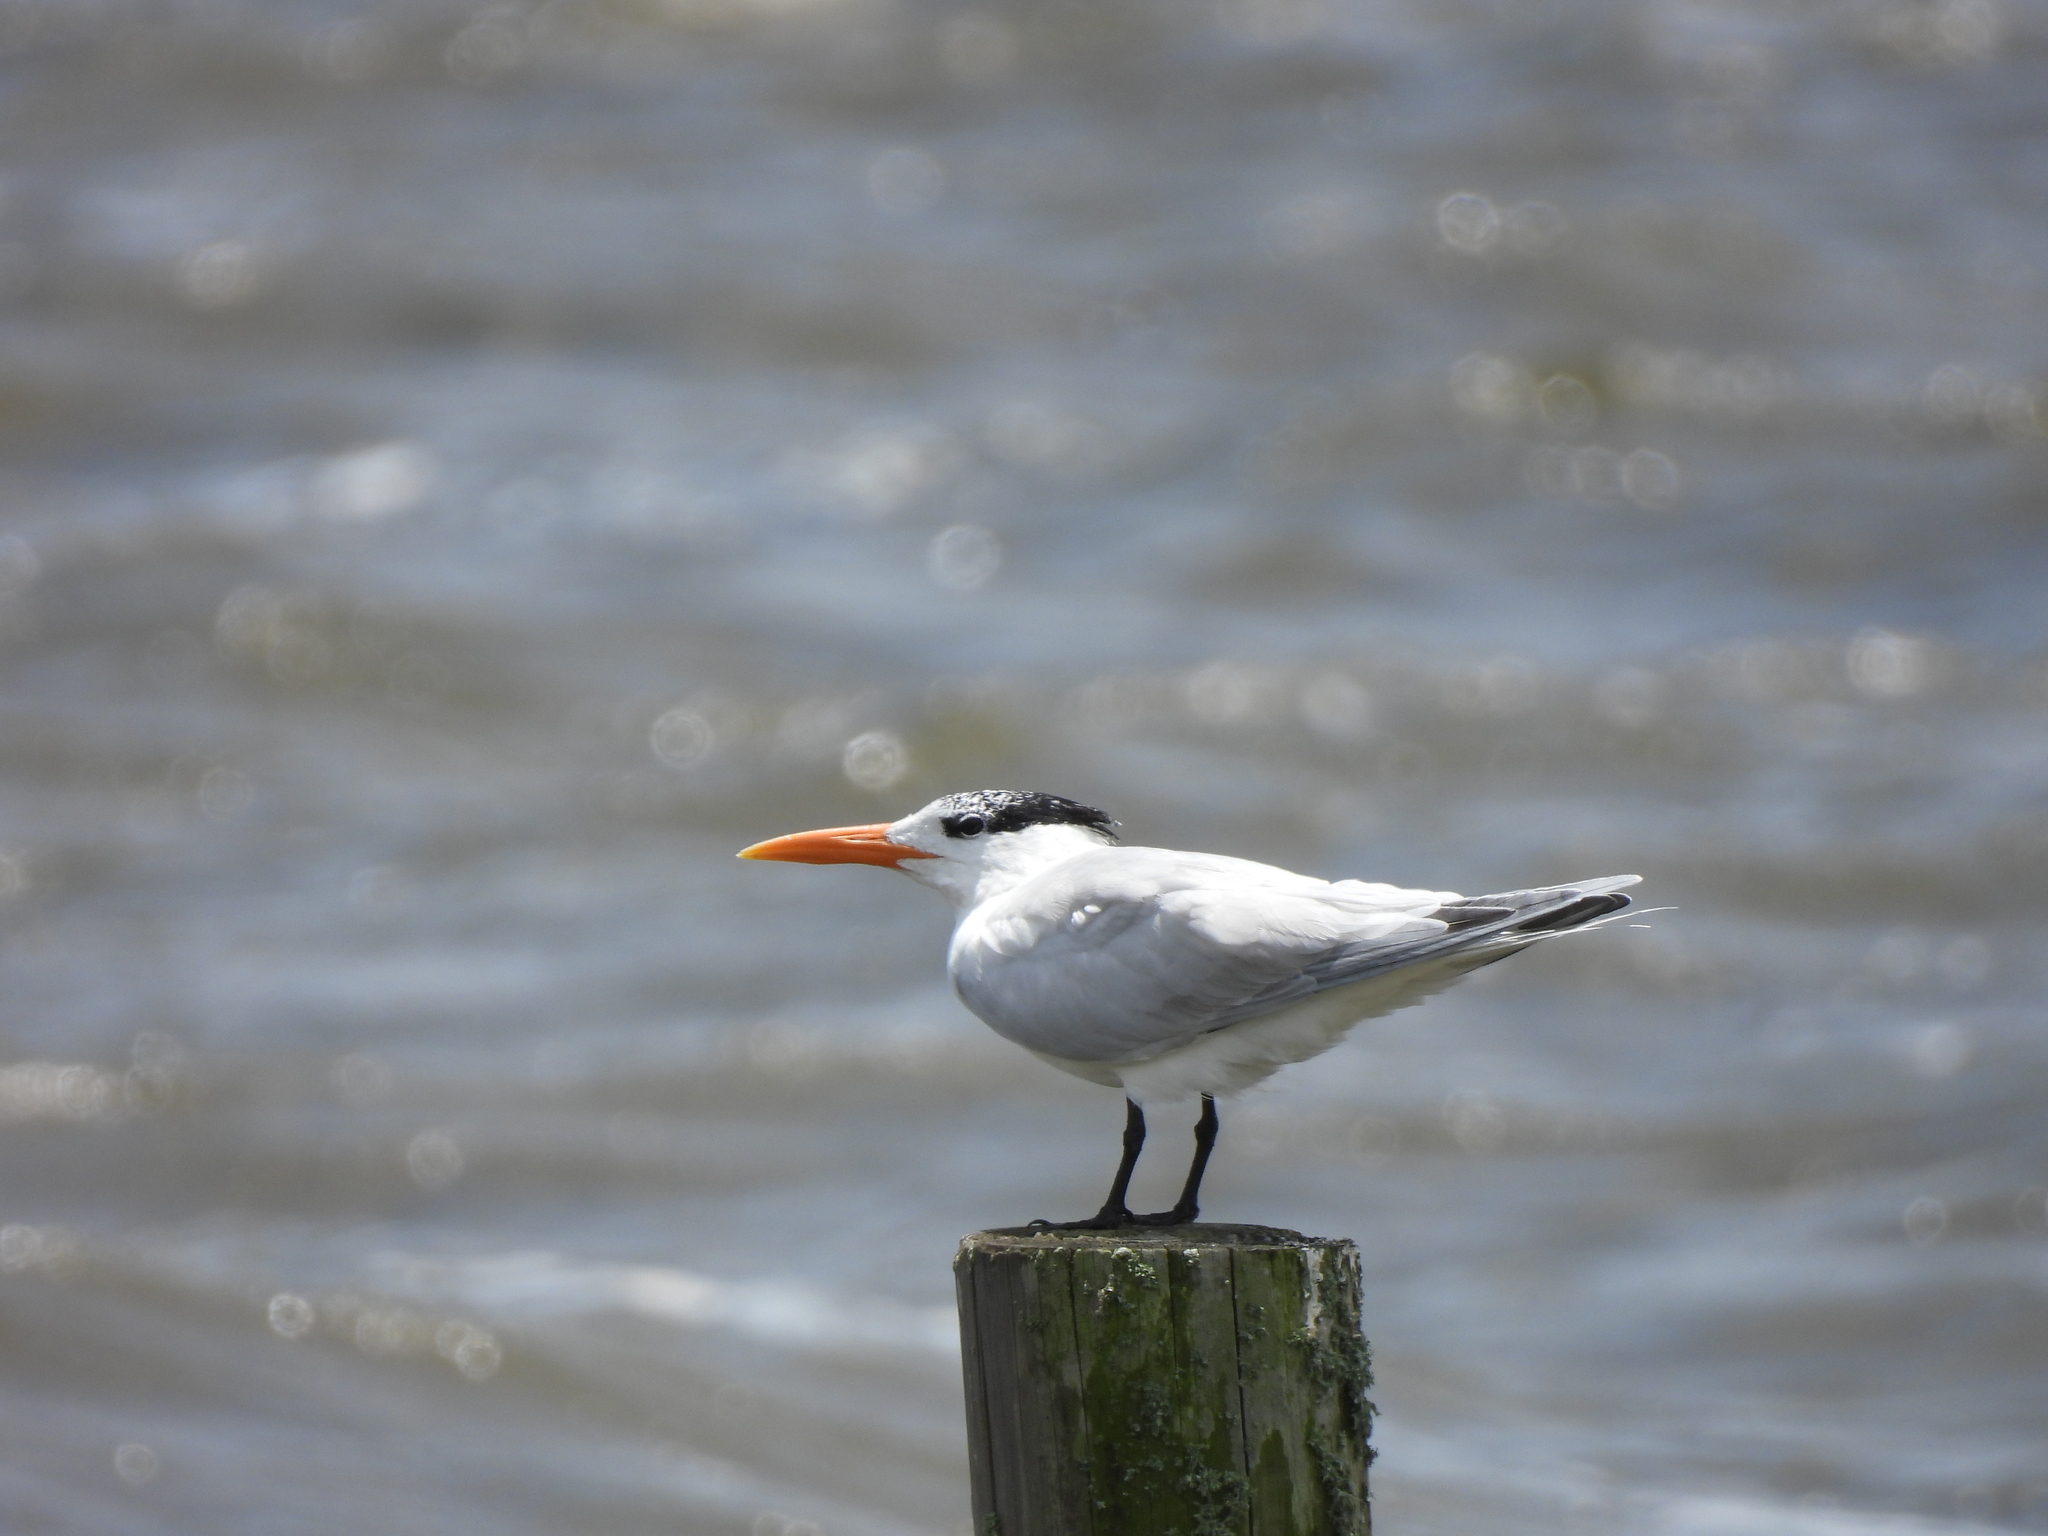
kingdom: Animalia
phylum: Chordata
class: Aves
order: Charadriiformes
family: Laridae
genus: Thalasseus
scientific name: Thalasseus maximus
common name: Royal tern
